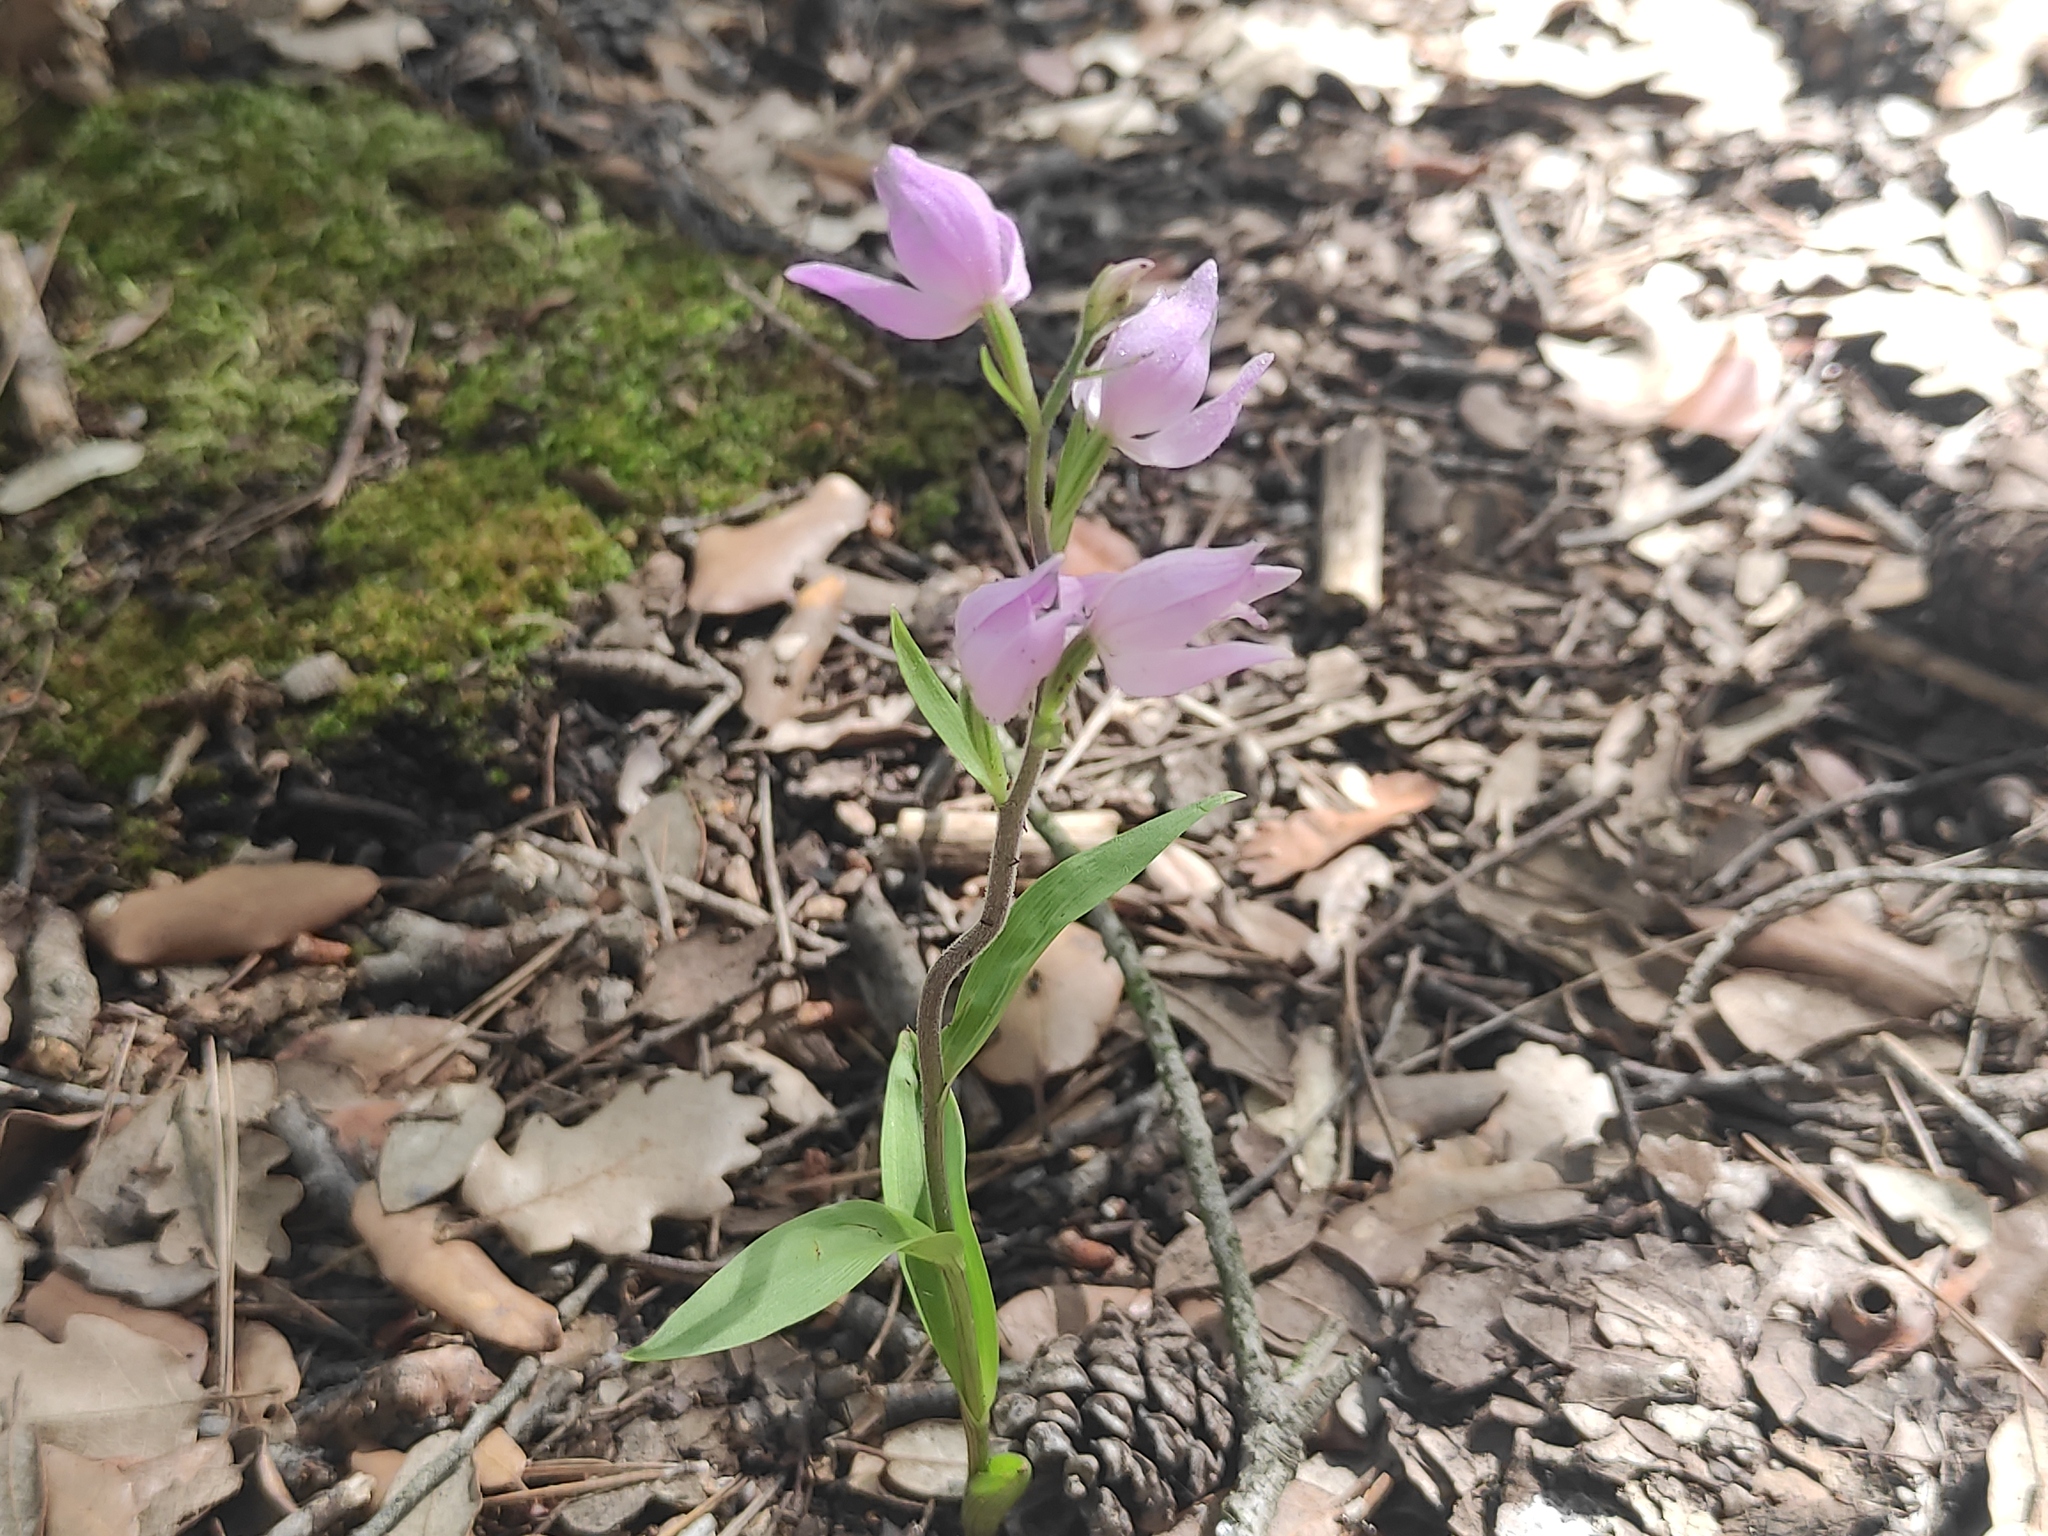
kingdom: Plantae
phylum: Tracheophyta
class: Liliopsida
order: Asparagales
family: Orchidaceae
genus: Cephalanthera
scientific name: Cephalanthera rubra
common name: Red helleborine
